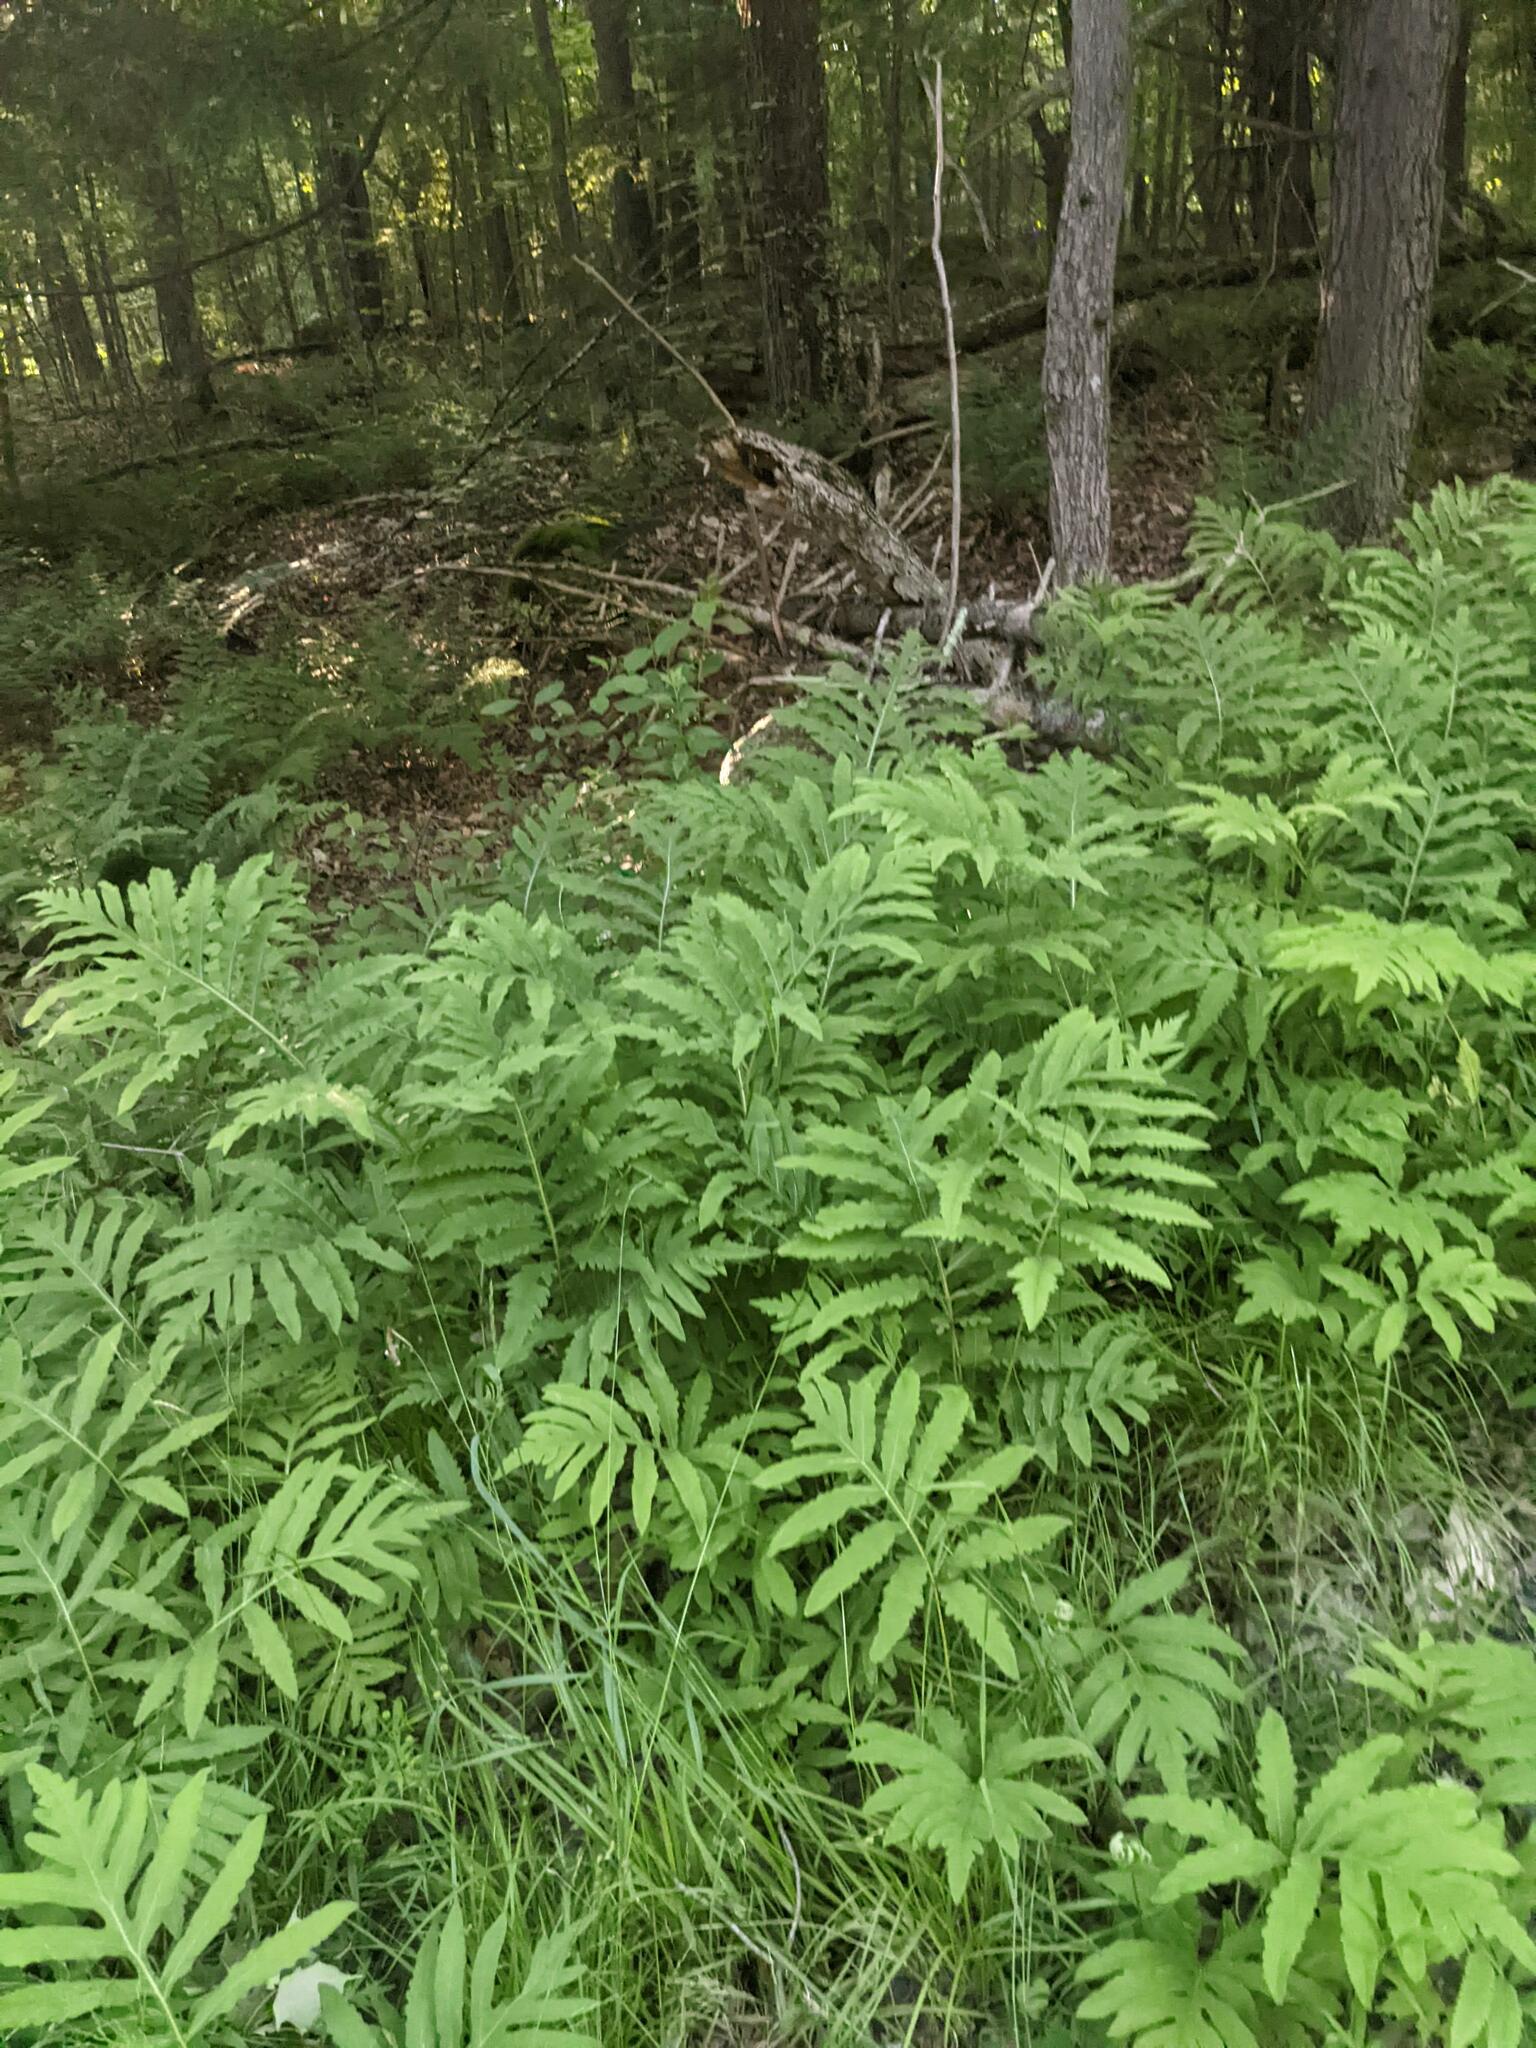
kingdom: Plantae
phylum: Tracheophyta
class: Polypodiopsida
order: Polypodiales
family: Onocleaceae
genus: Onoclea
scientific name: Onoclea sensibilis
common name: Sensitive fern
